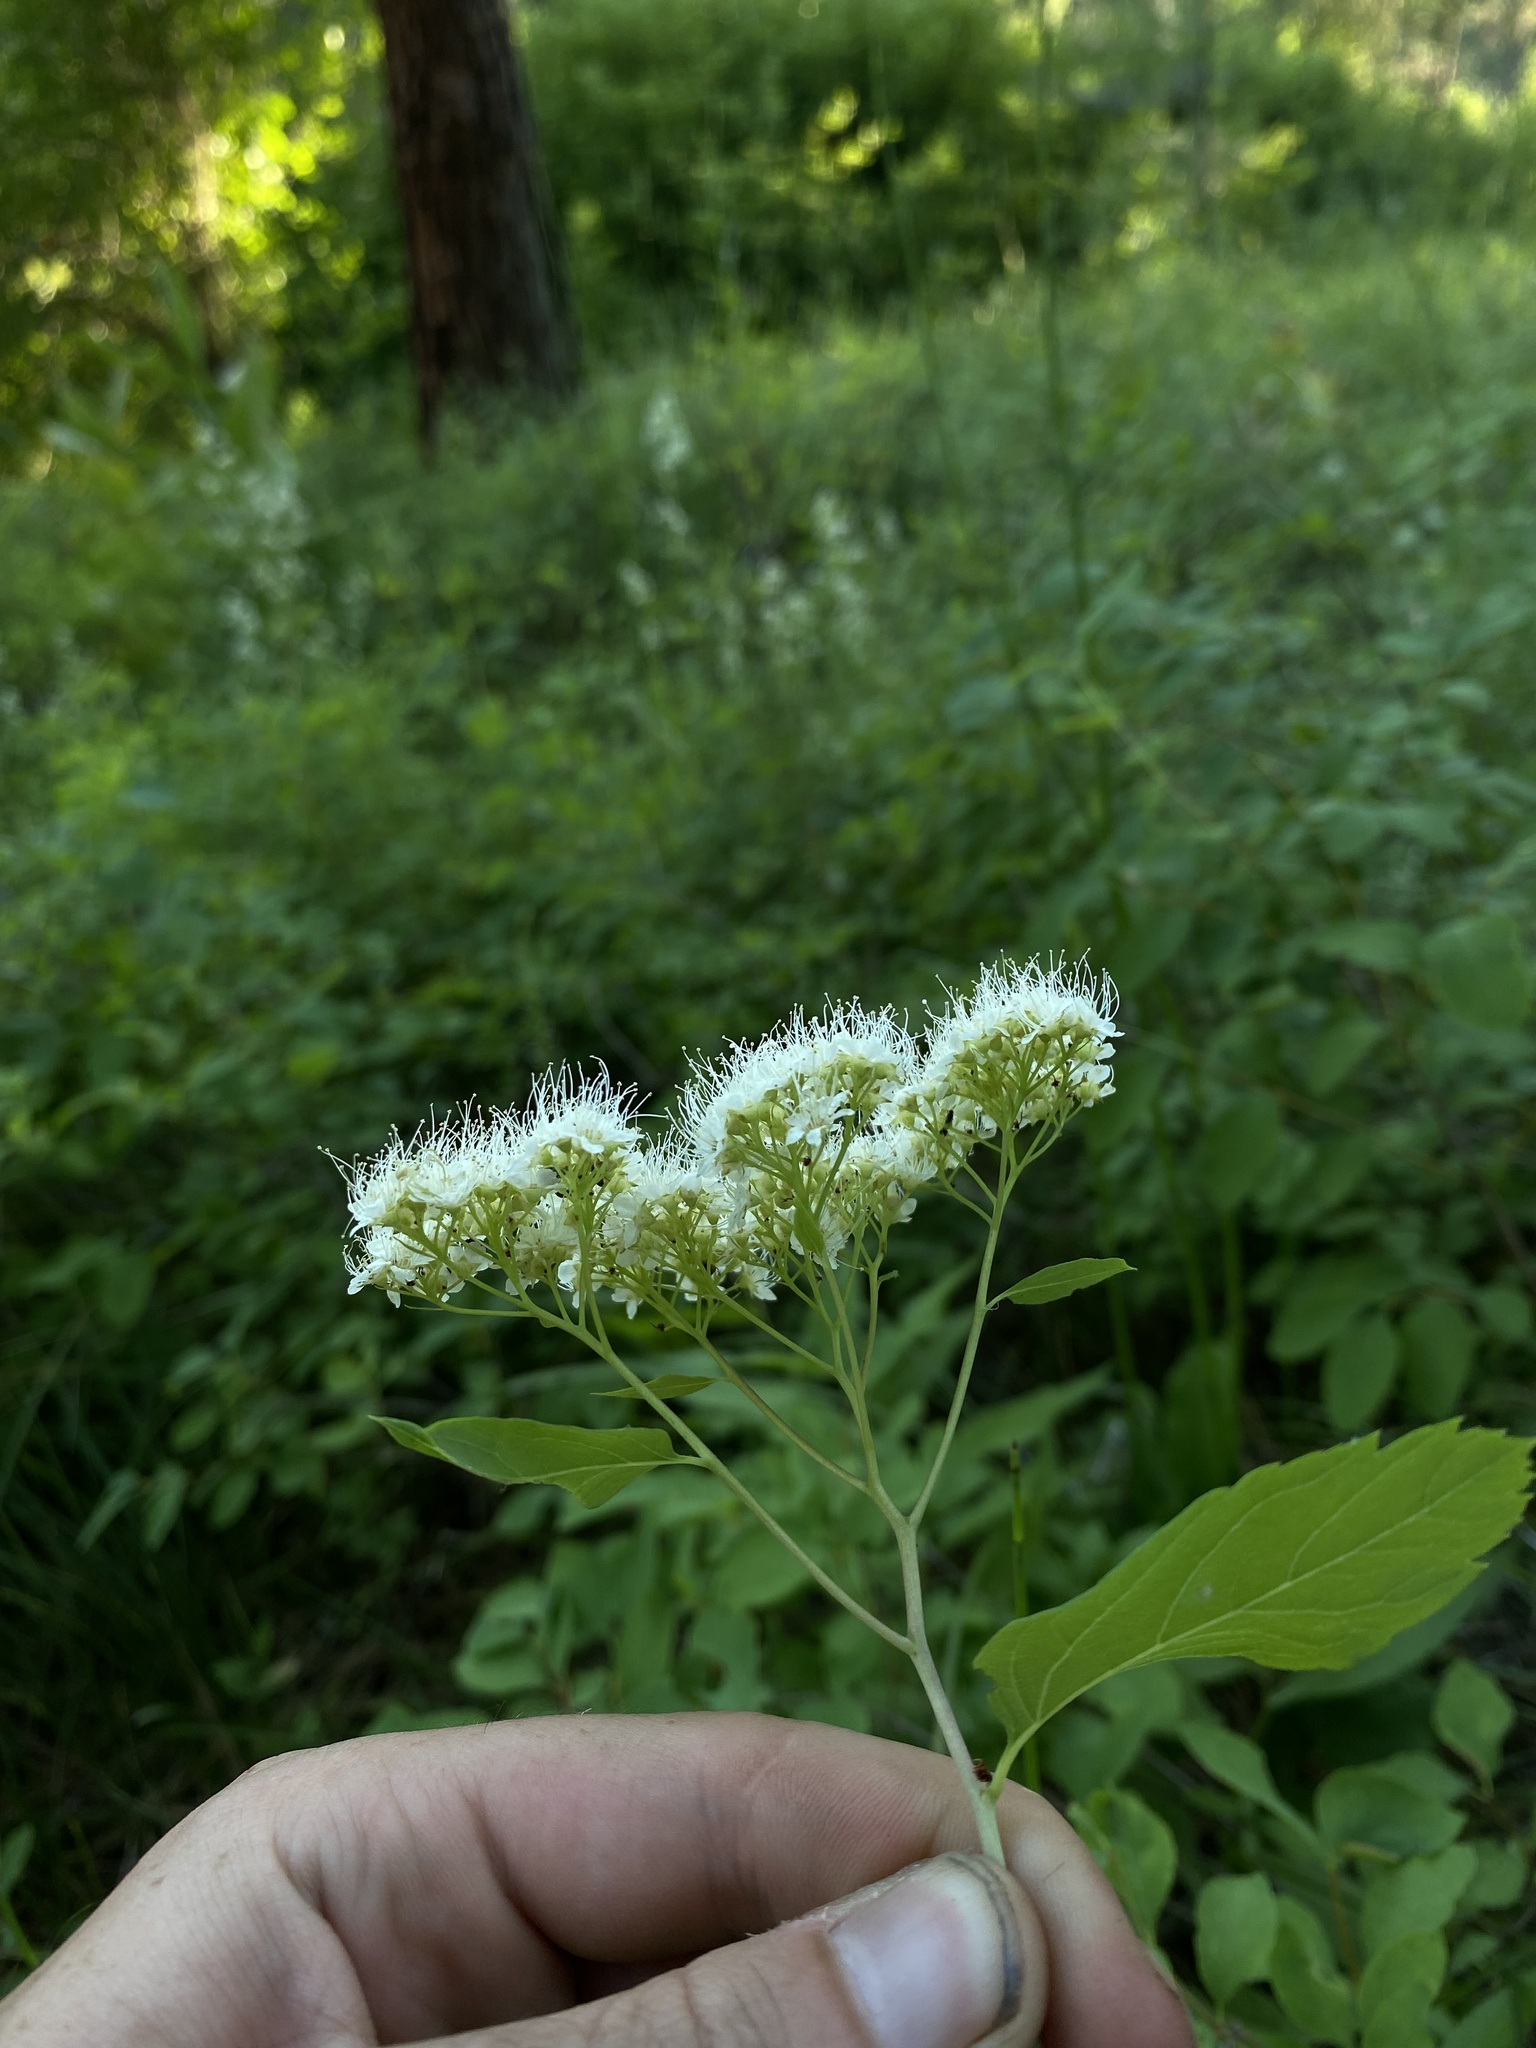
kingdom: Plantae
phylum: Tracheophyta
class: Magnoliopsida
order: Rosales
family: Rosaceae
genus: Spiraea
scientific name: Spiraea lucida
